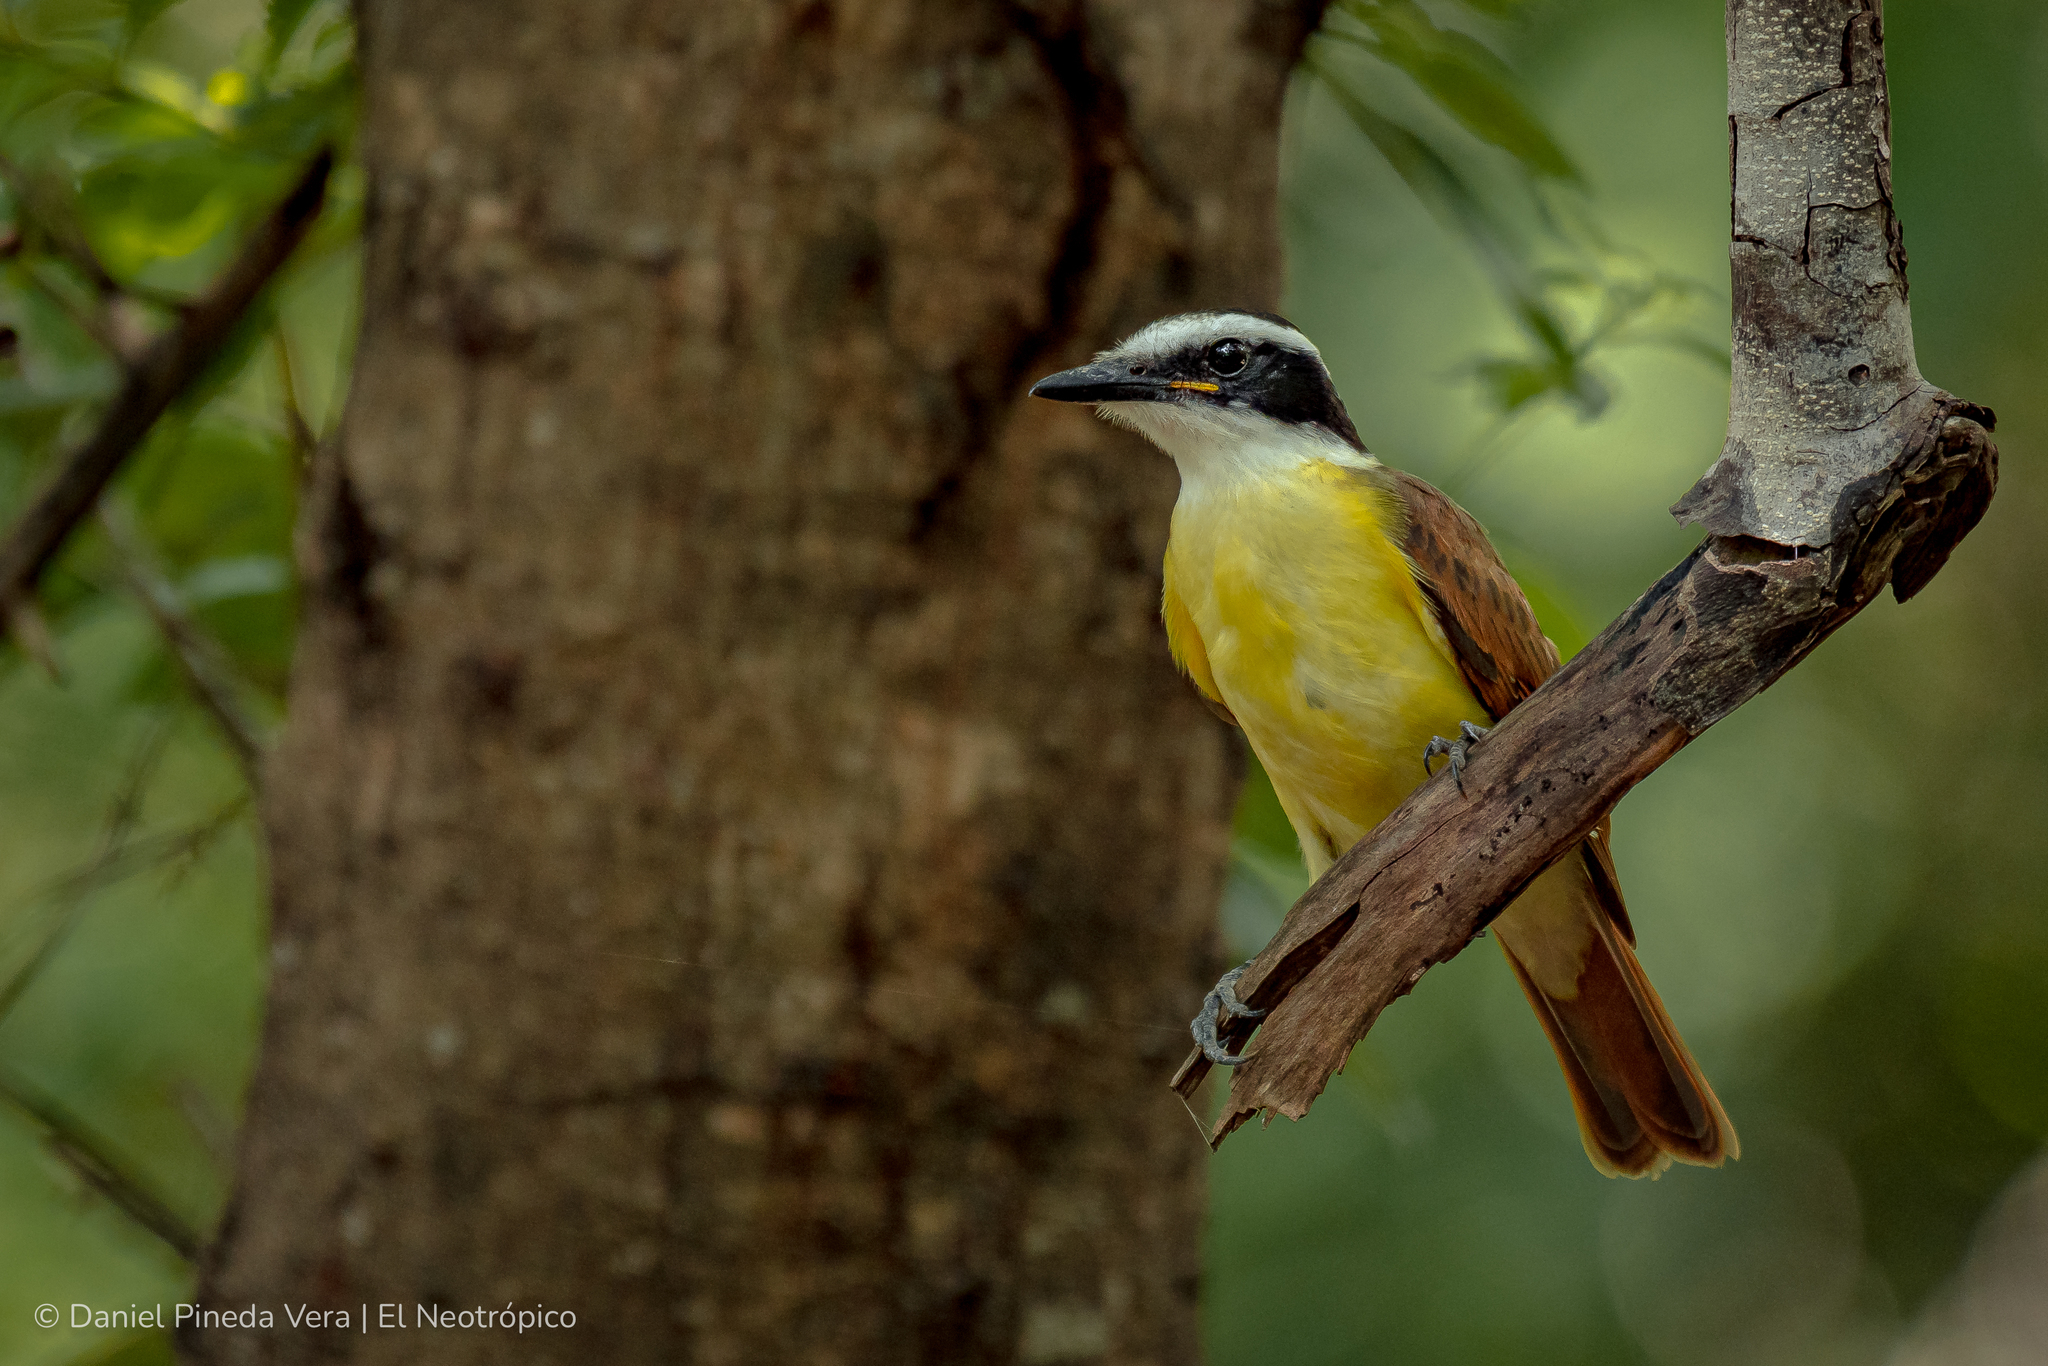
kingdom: Animalia
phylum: Chordata
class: Aves
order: Passeriformes
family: Tyrannidae
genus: Pitangus
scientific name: Pitangus sulphuratus
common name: Great kiskadee
